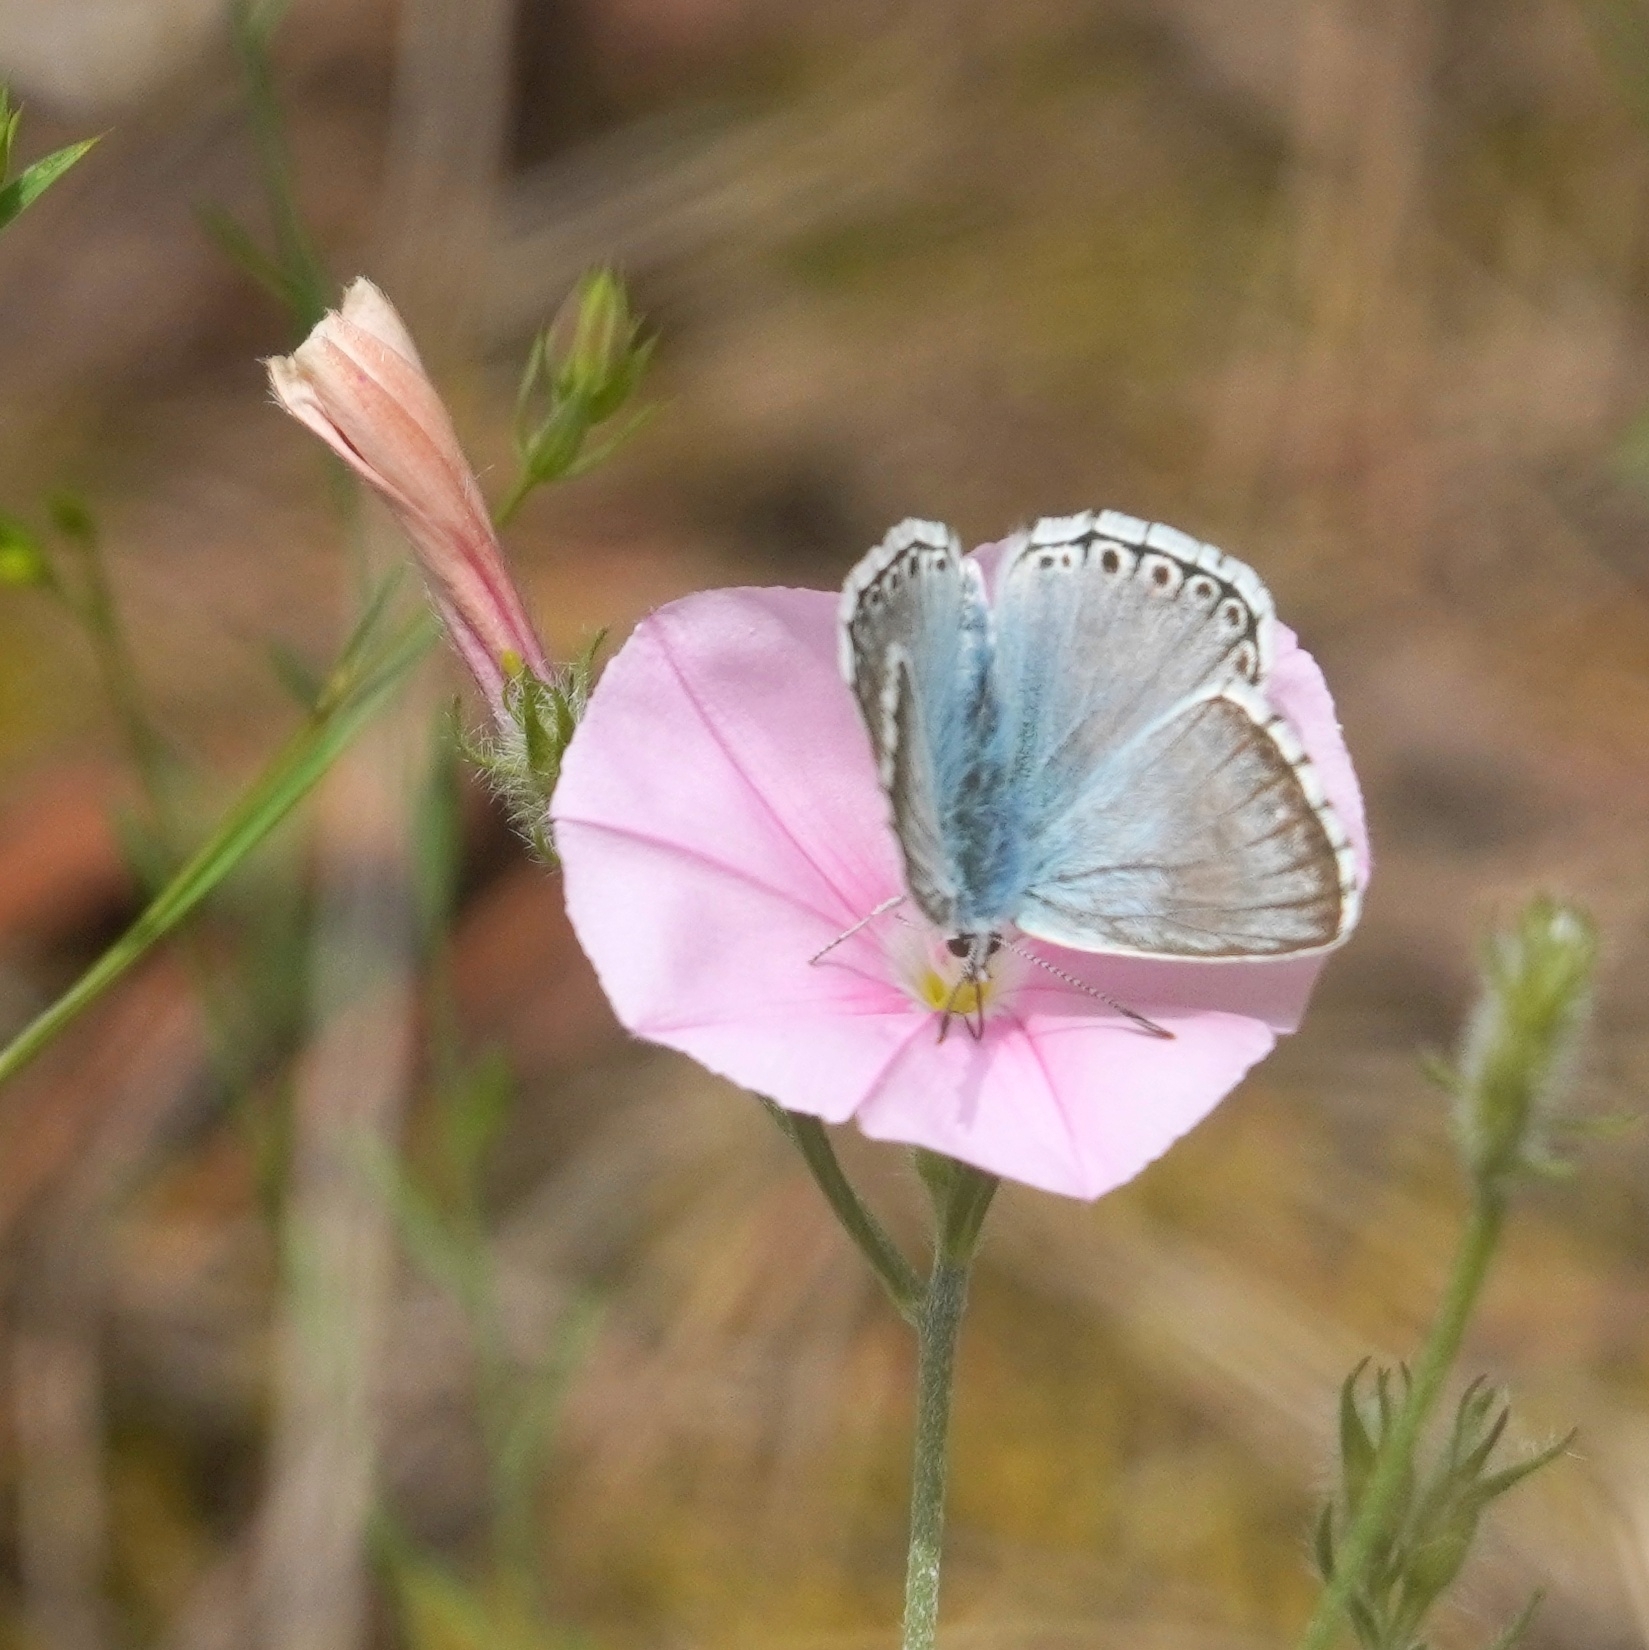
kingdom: Animalia
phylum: Arthropoda
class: Insecta
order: Lepidoptera
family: Lycaenidae
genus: Lysandra
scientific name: Lysandra hispana
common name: Provence chalkhill blue
